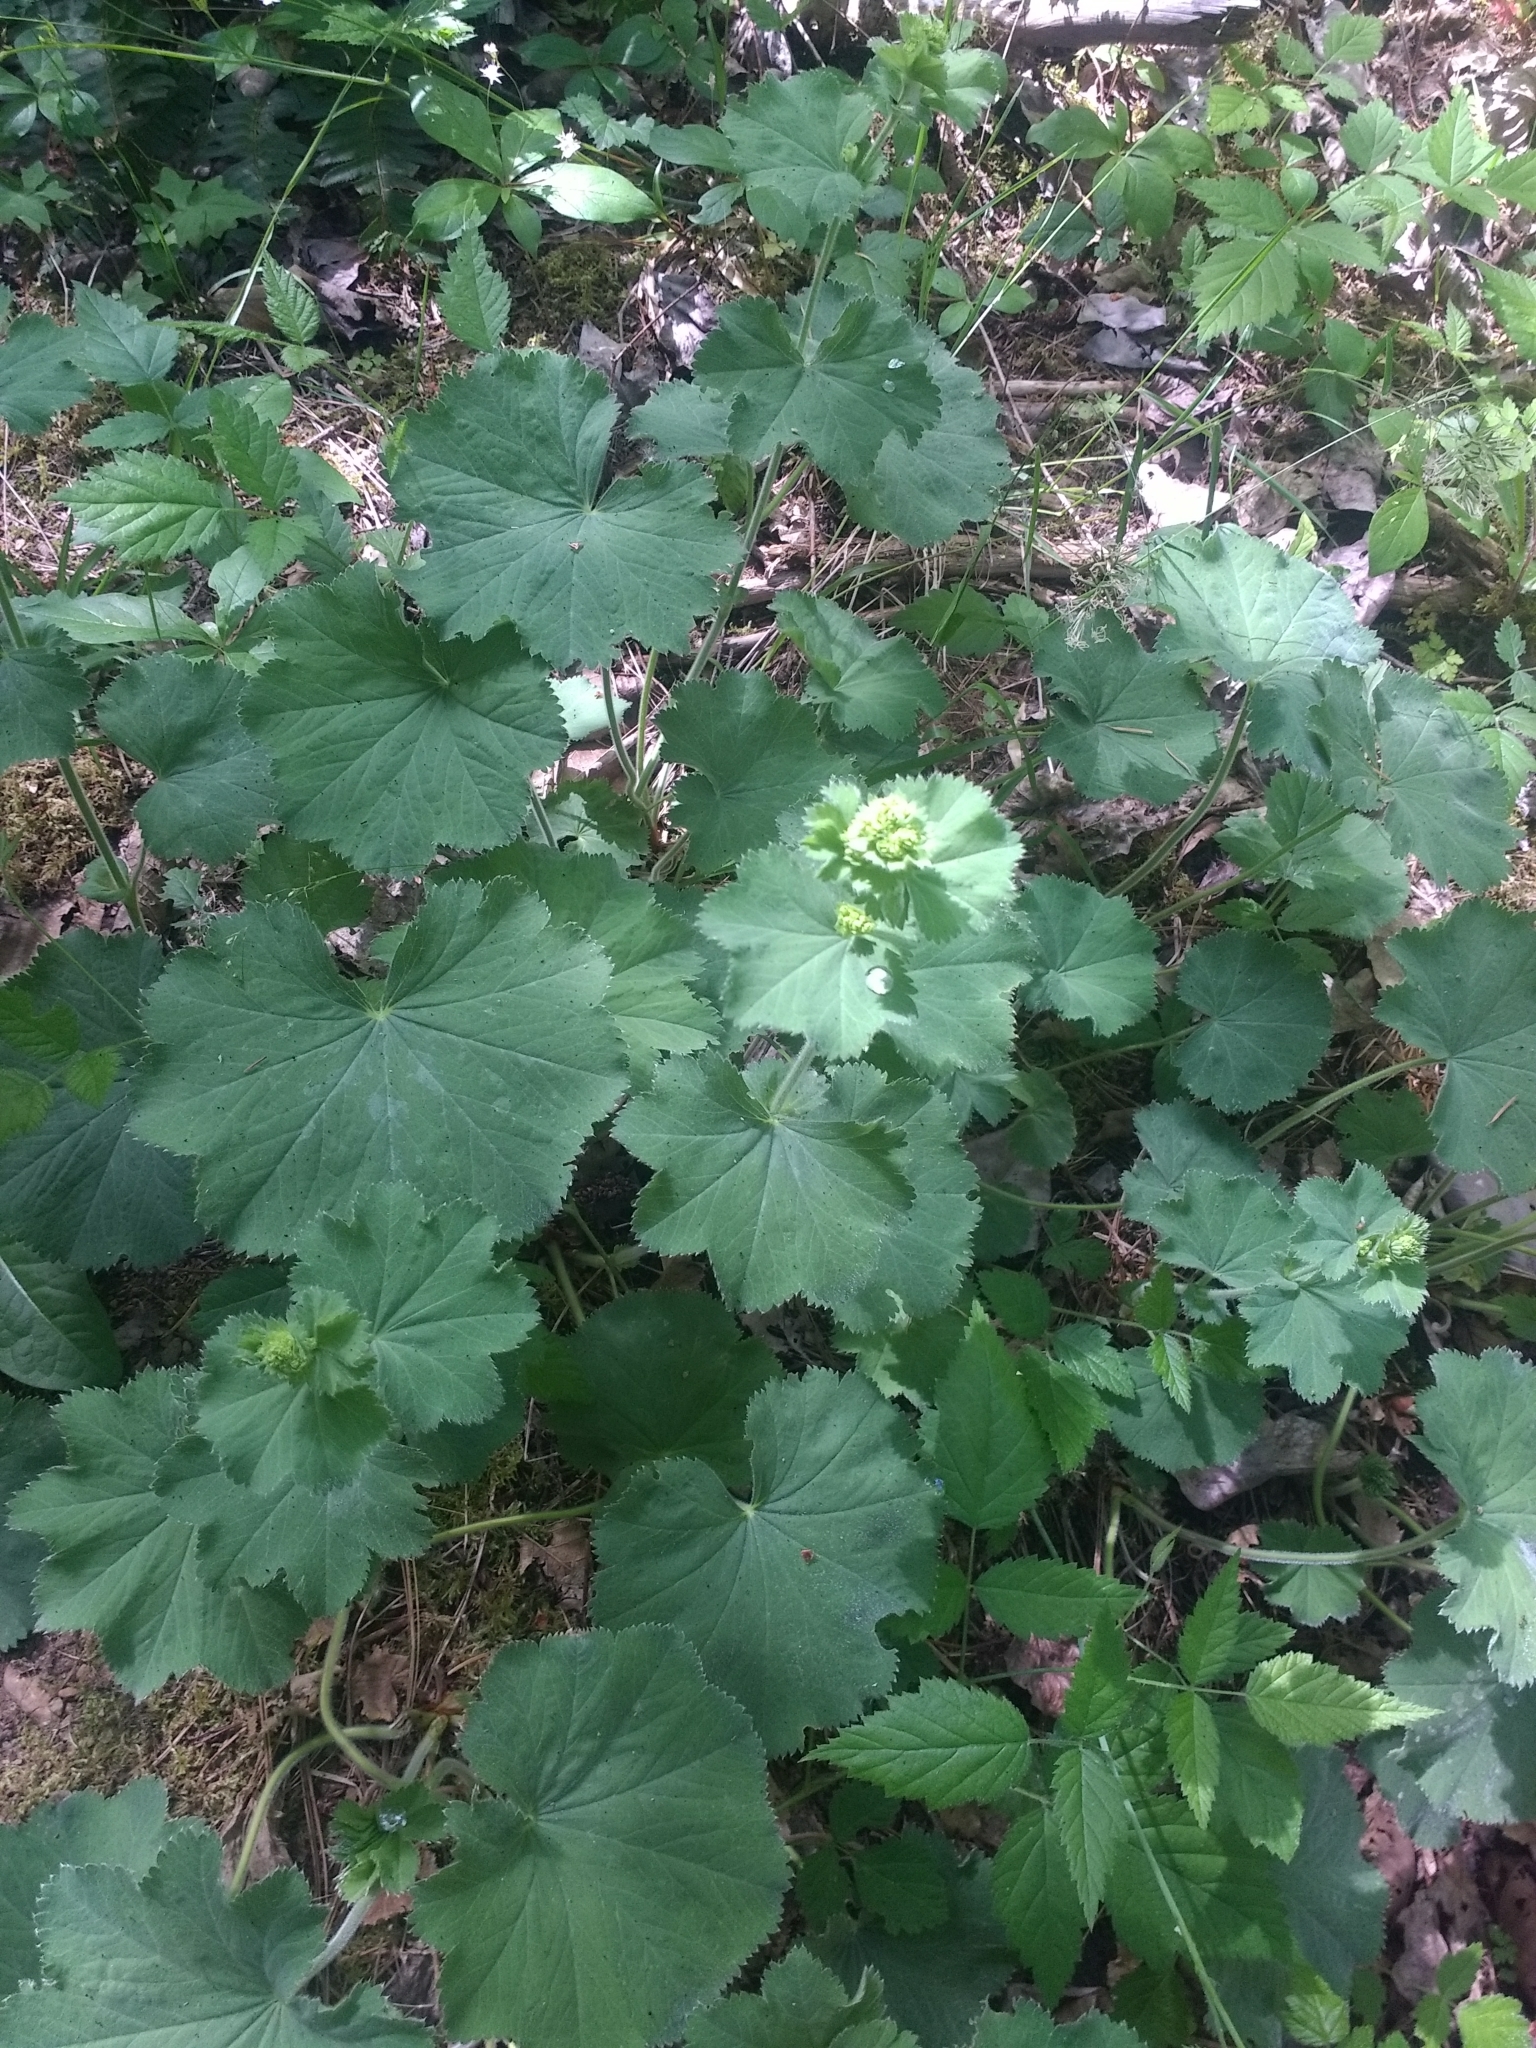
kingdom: Plantae
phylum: Tracheophyta
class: Magnoliopsida
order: Rosales
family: Rosaceae
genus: Alchemilla
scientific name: Alchemilla mollis
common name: Lady's-mantle
